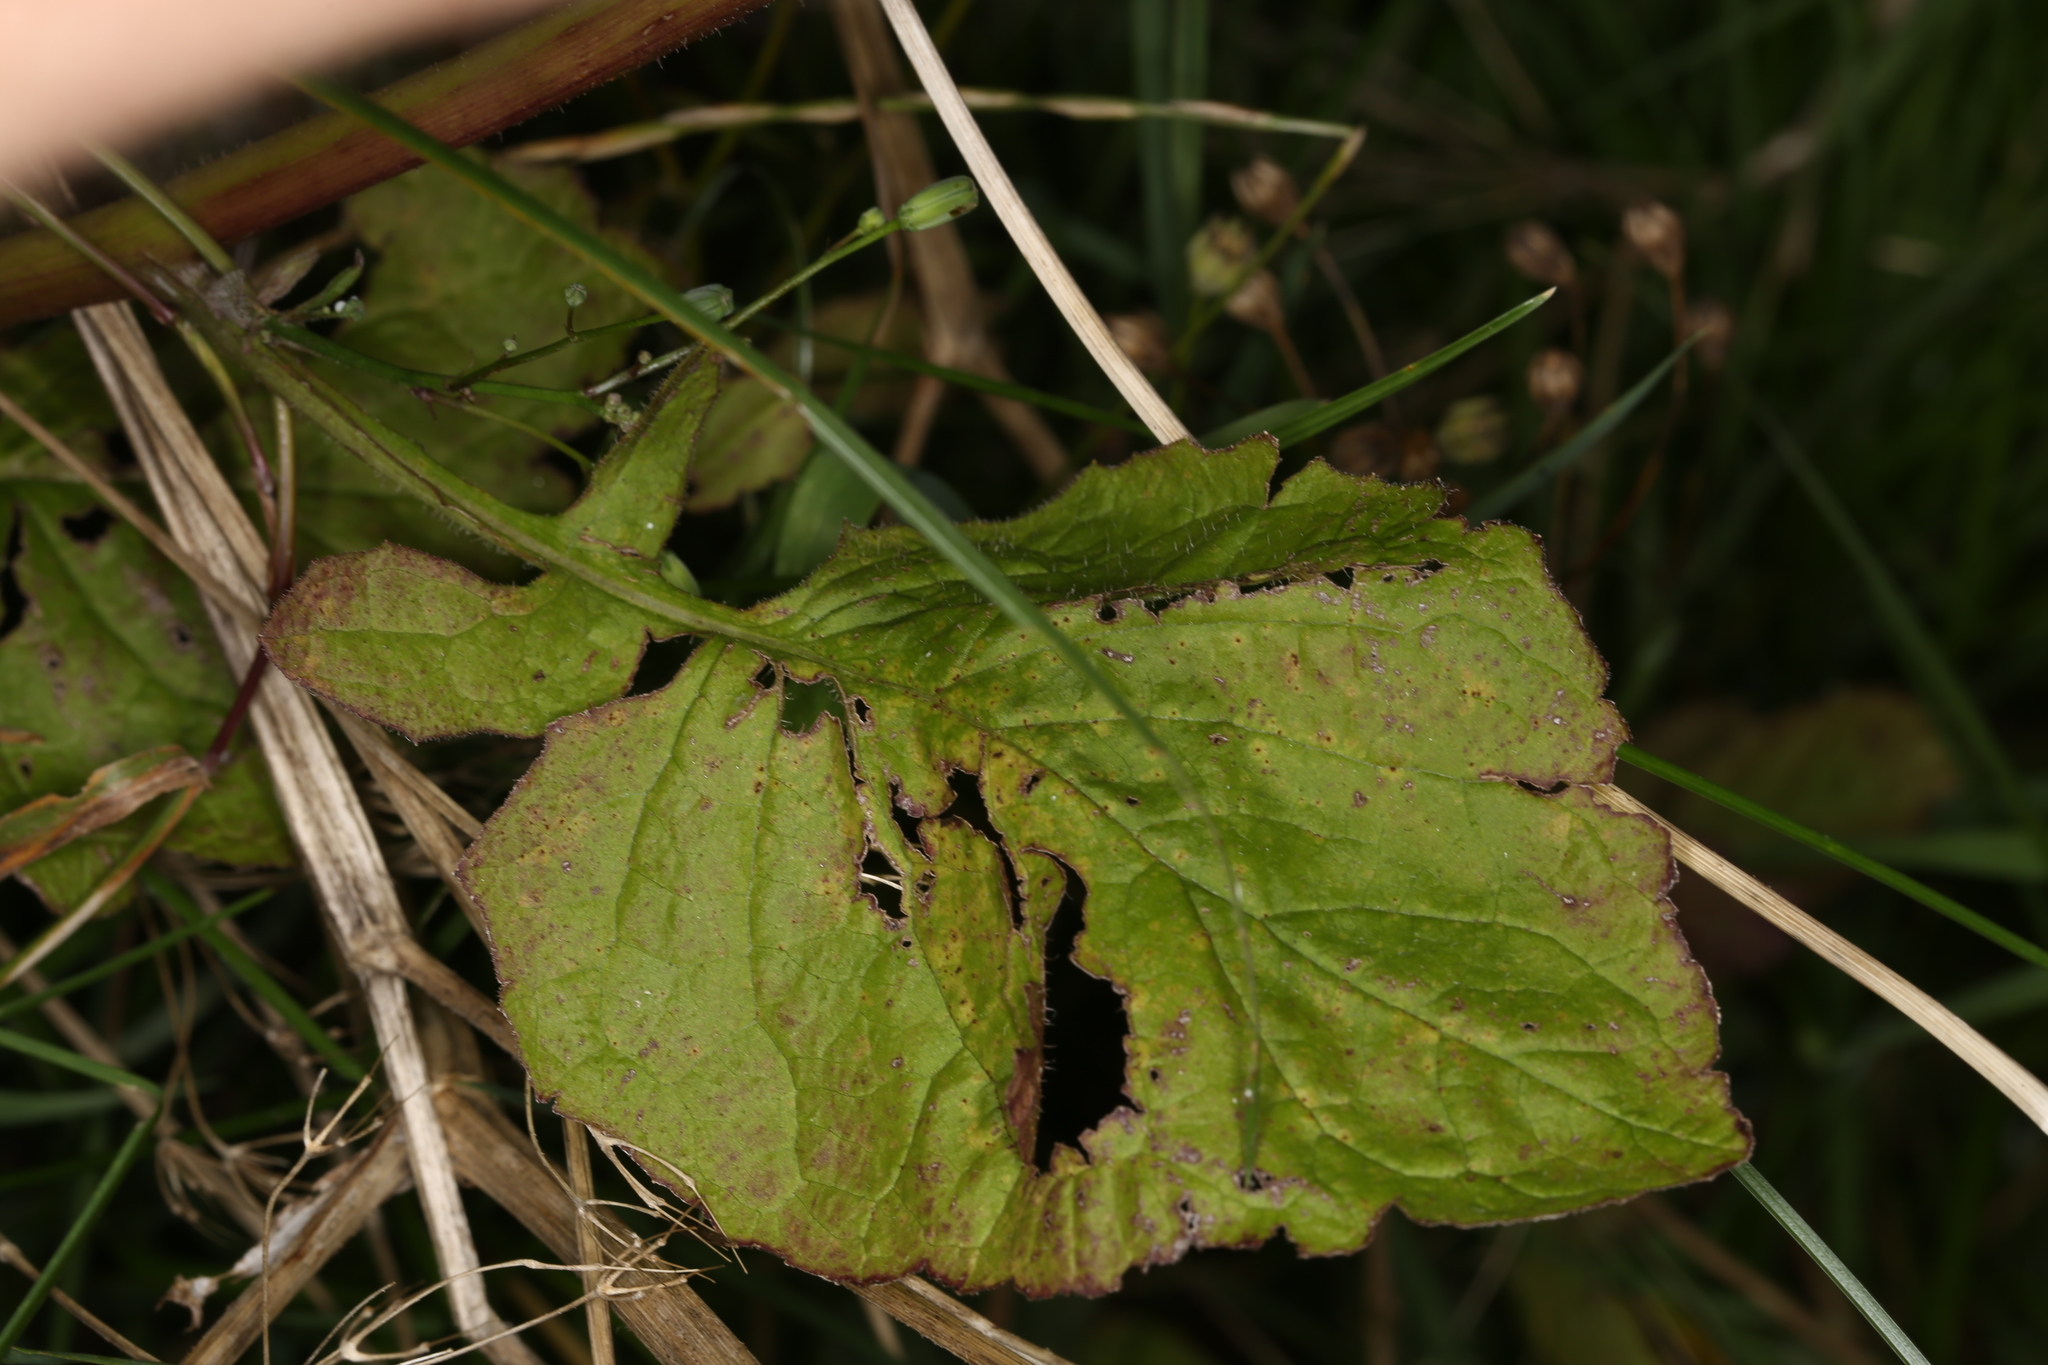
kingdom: Plantae
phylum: Tracheophyta
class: Magnoliopsida
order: Asterales
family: Asteraceae
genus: Lapsana
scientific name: Lapsana communis
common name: Nipplewort
